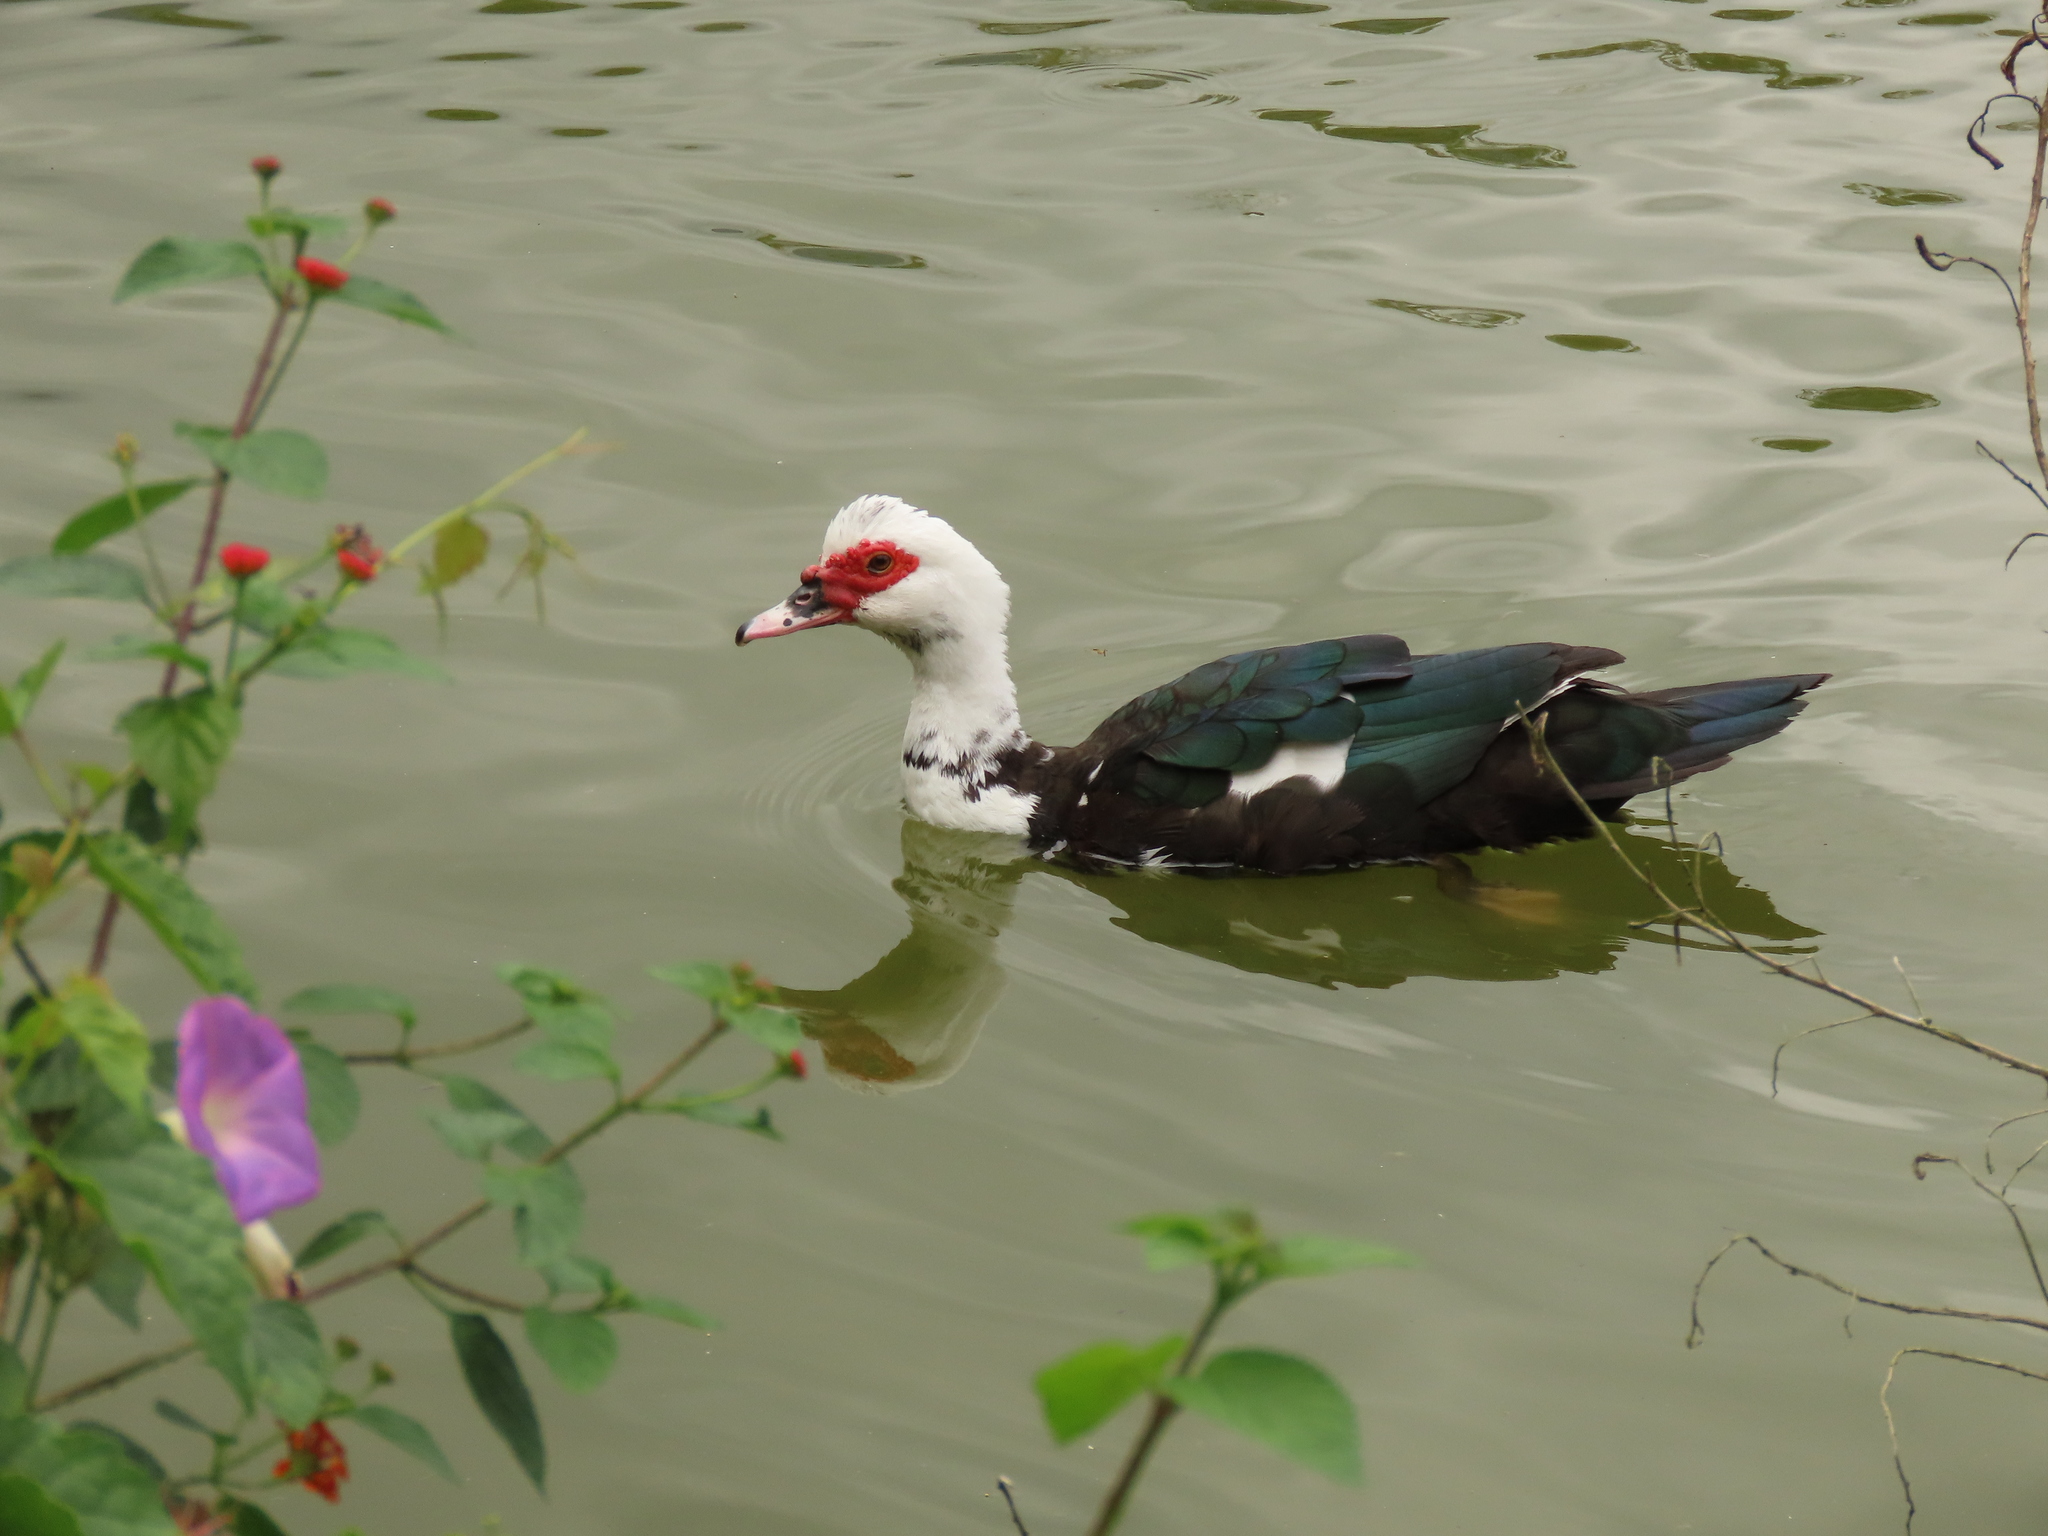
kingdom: Animalia
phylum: Chordata
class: Aves
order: Anseriformes
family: Anatidae
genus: Cairina
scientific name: Cairina moschata
